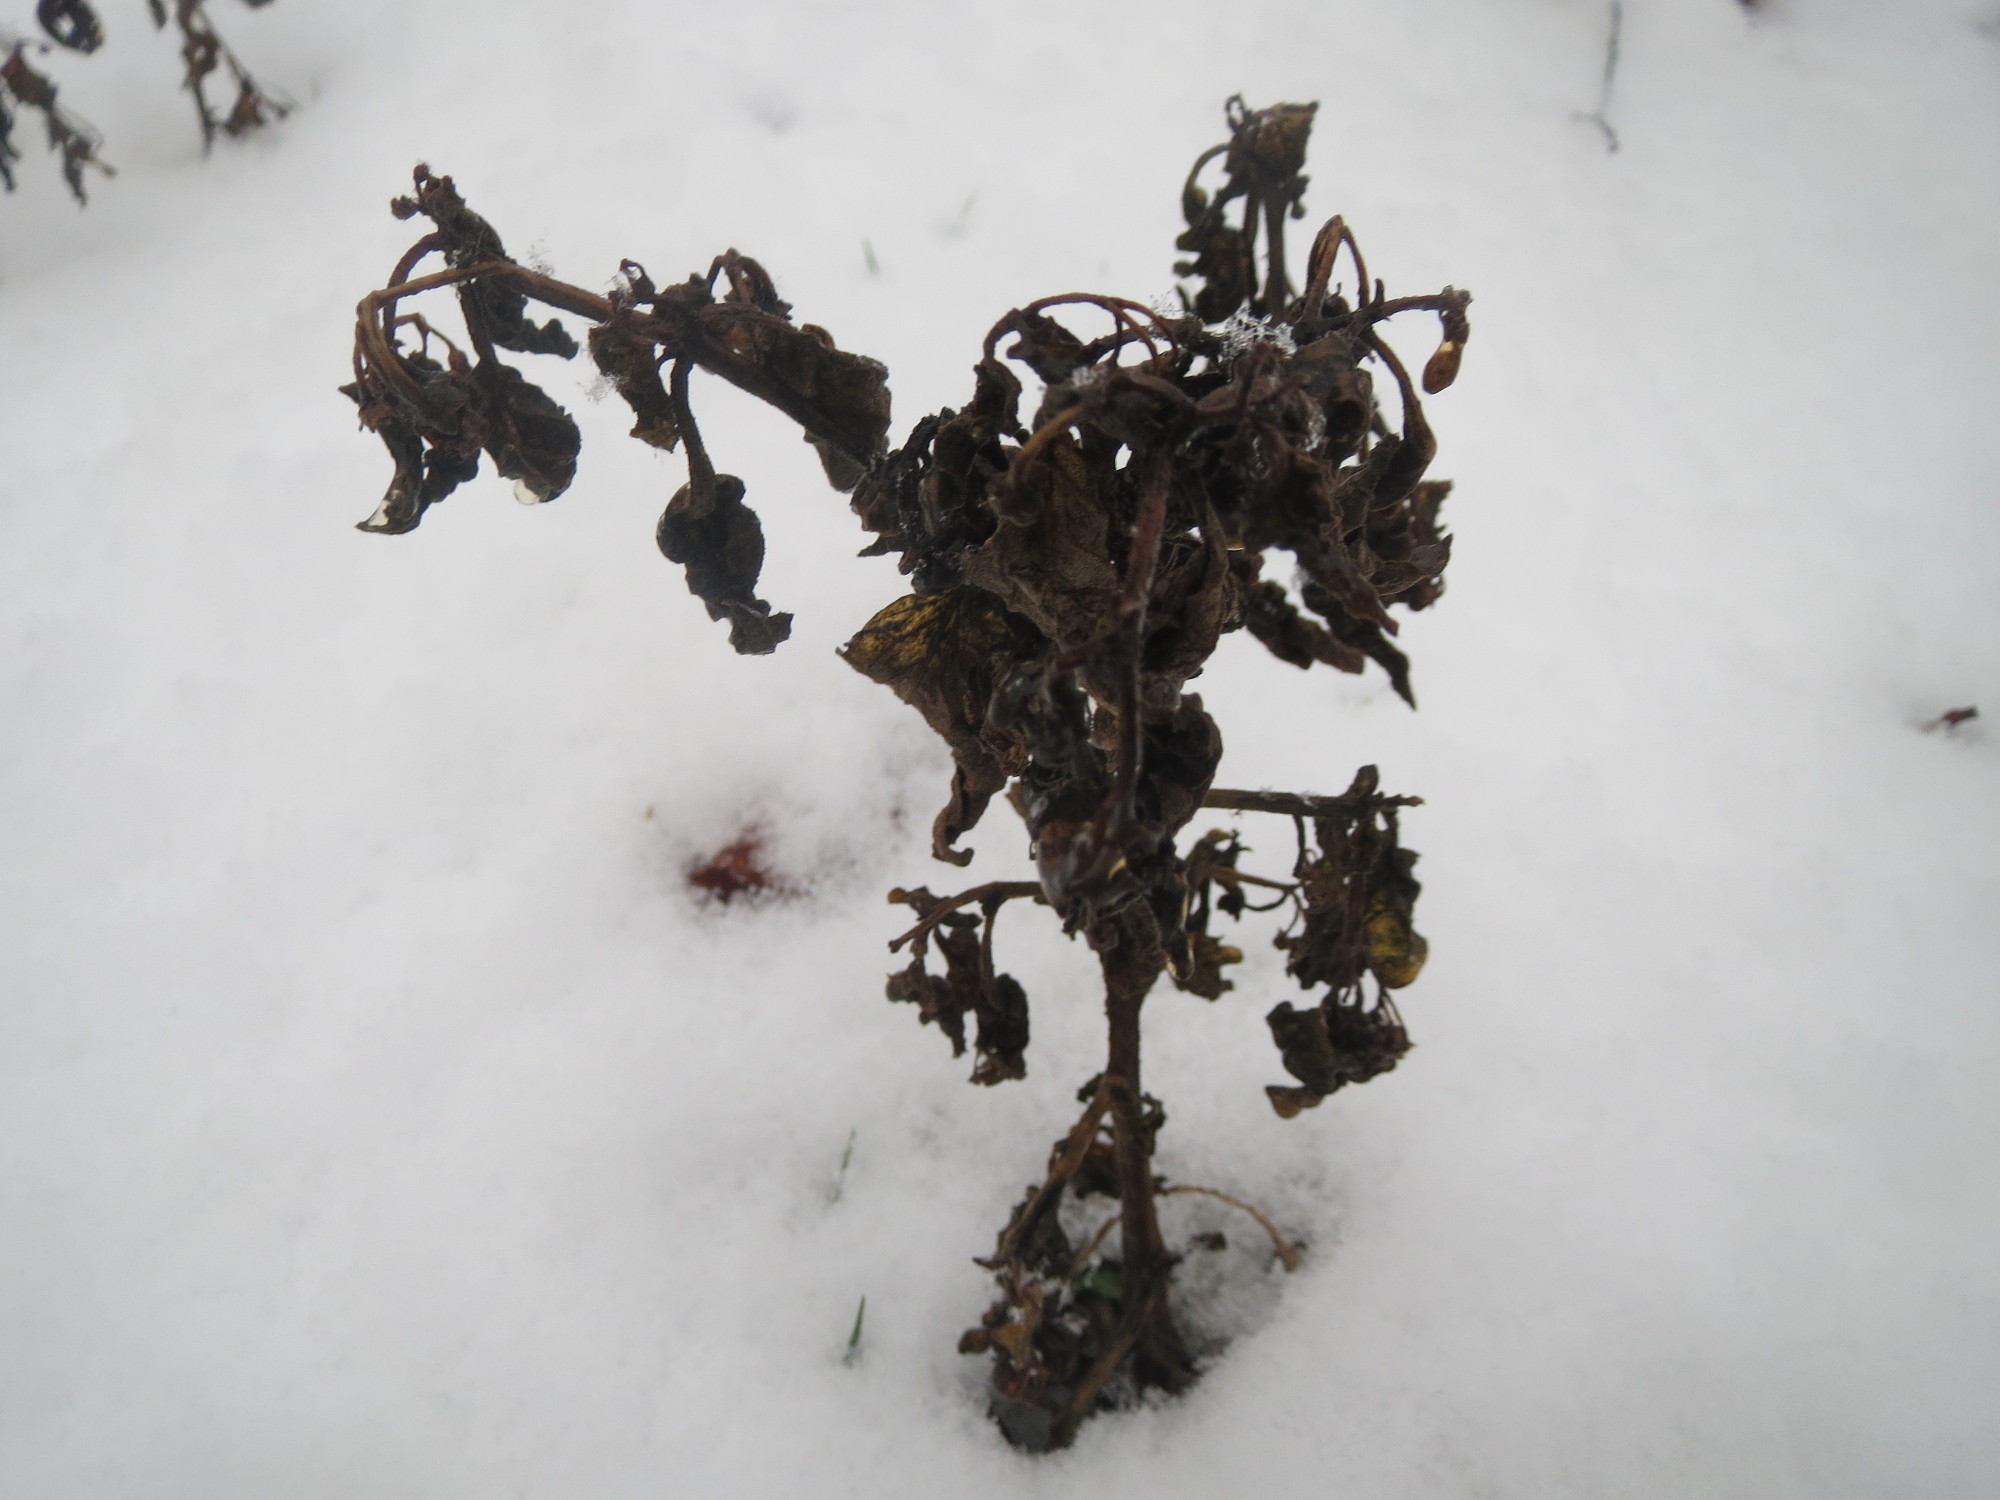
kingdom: Plantae
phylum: Tracheophyta
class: Magnoliopsida
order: Solanales
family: Solanaceae
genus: Solanum
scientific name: Solanum nigrum
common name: Black nightshade
